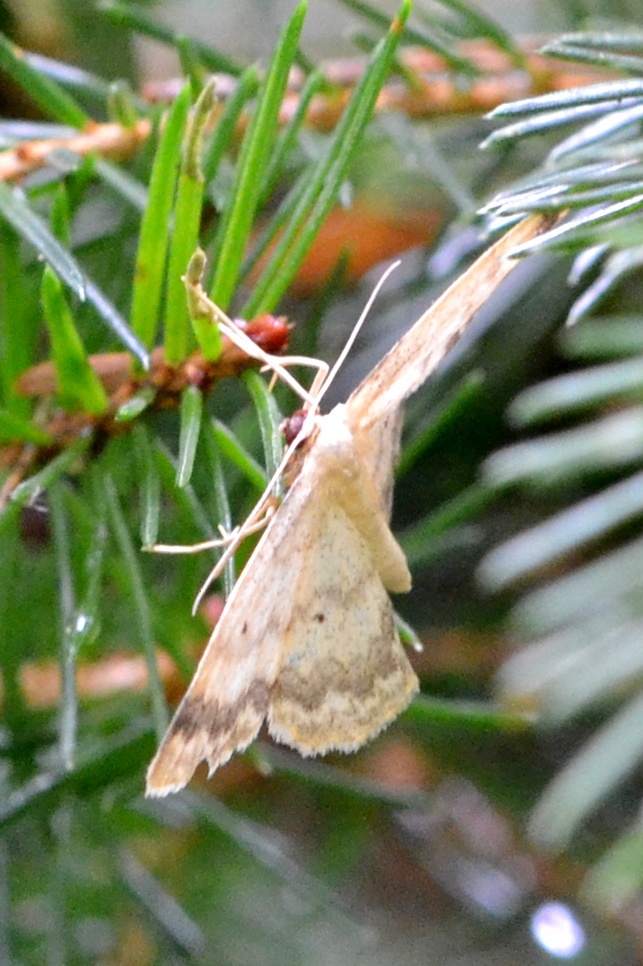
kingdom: Animalia
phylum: Arthropoda
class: Insecta
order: Lepidoptera
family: Geometridae
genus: Idaea
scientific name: Idaea biselata
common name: Small fan-footed wave
